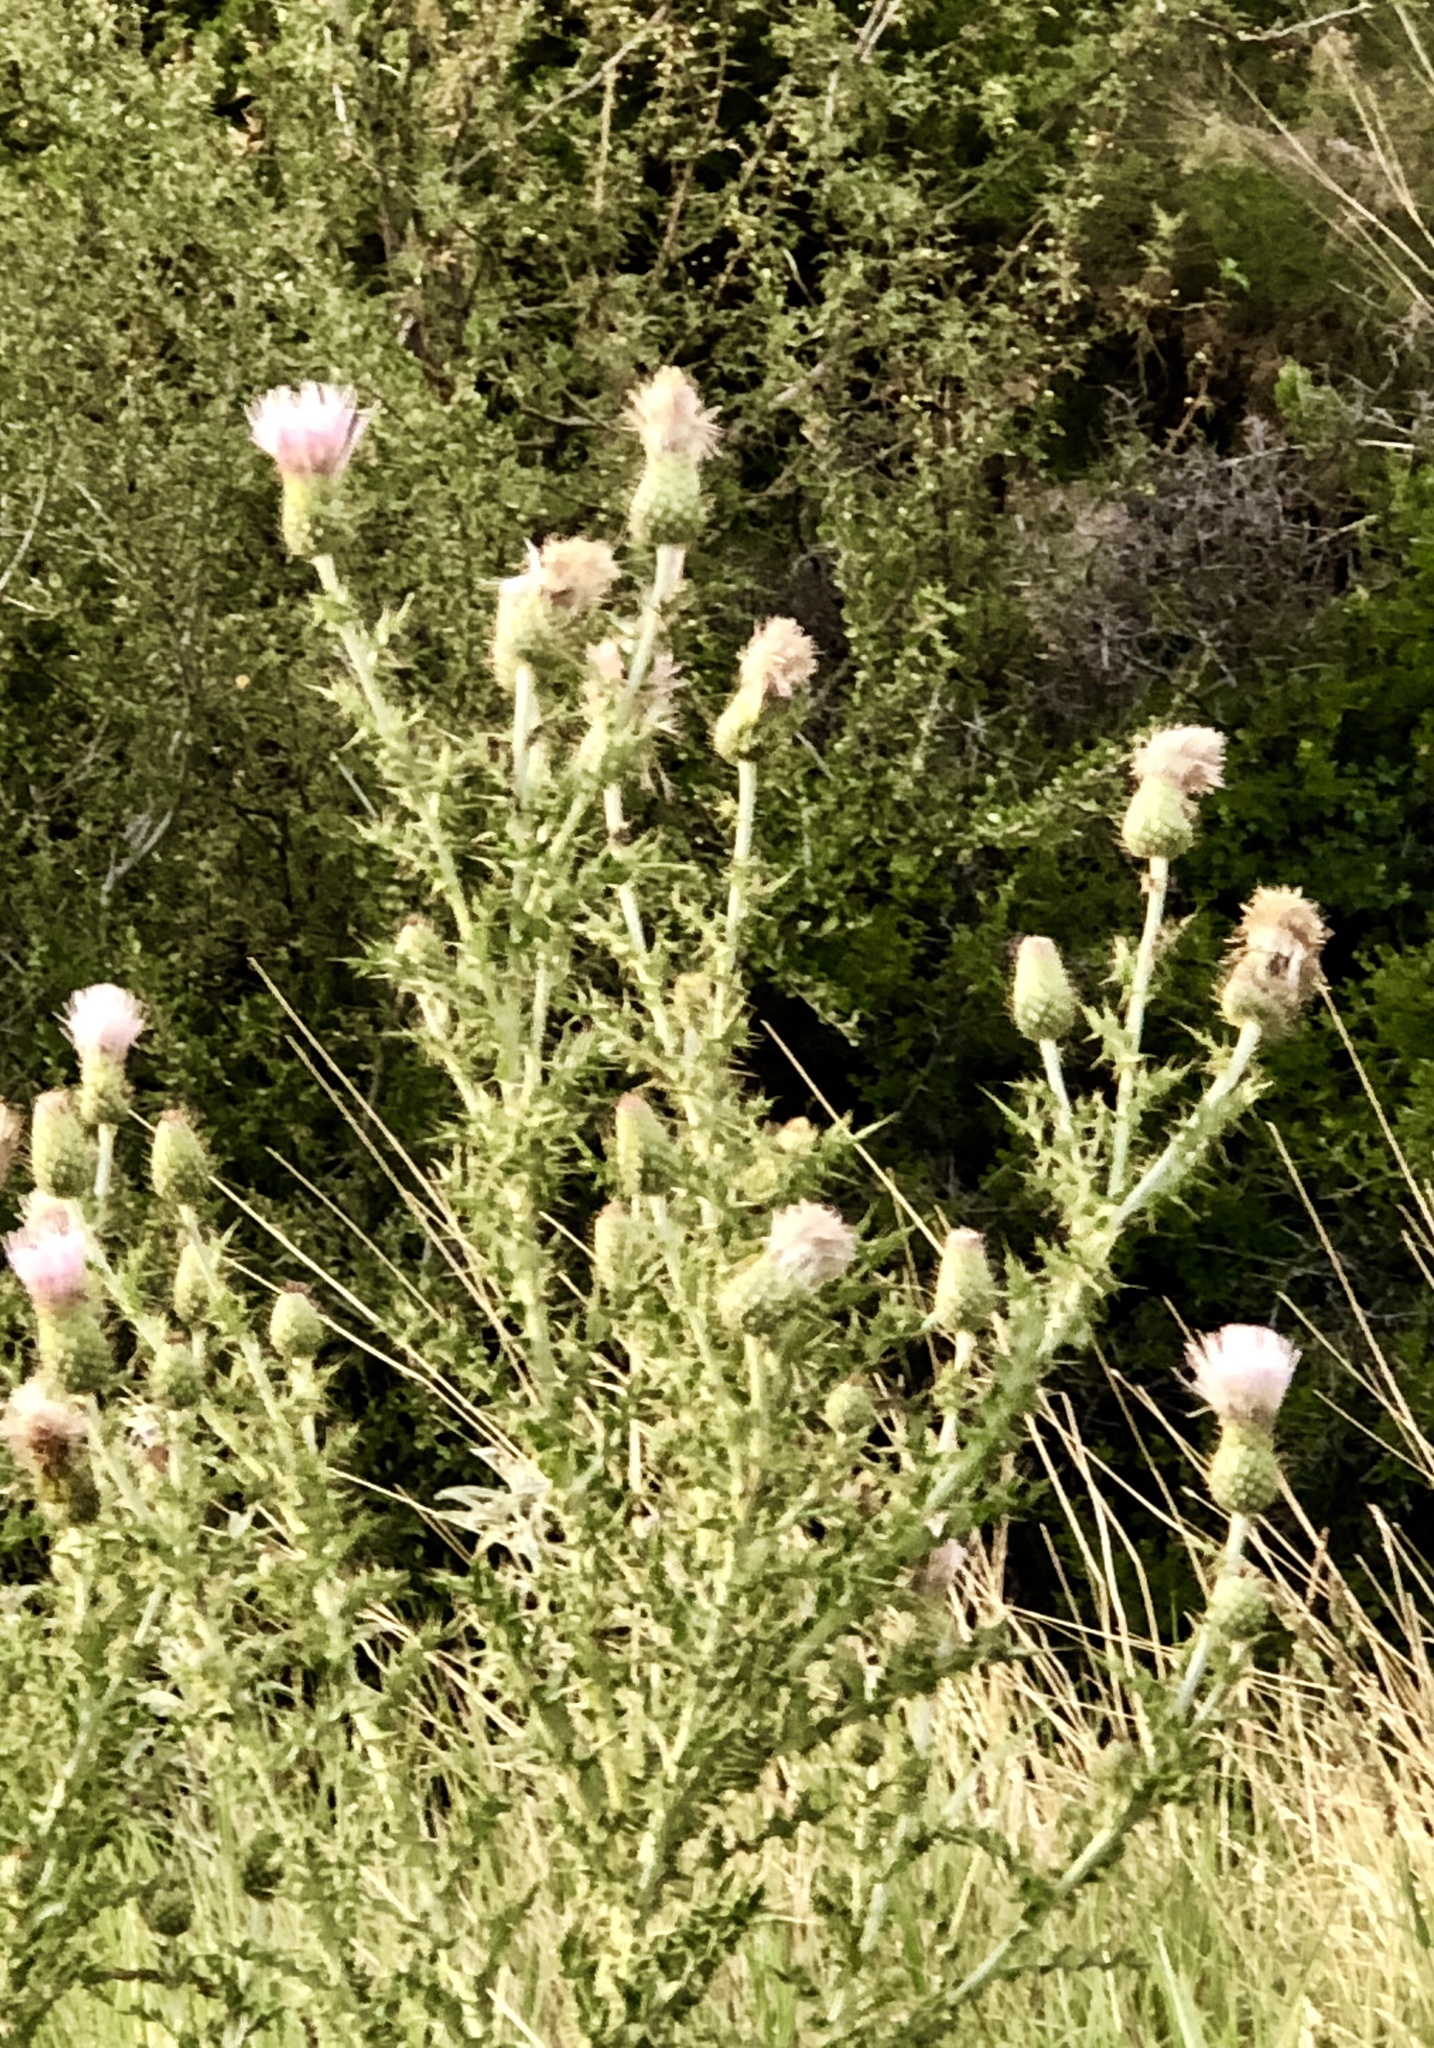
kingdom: Plantae
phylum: Tracheophyta
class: Magnoliopsida
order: Asterales
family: Asteraceae
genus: Cirsium
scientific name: Cirsium vulgare
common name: Bull thistle
